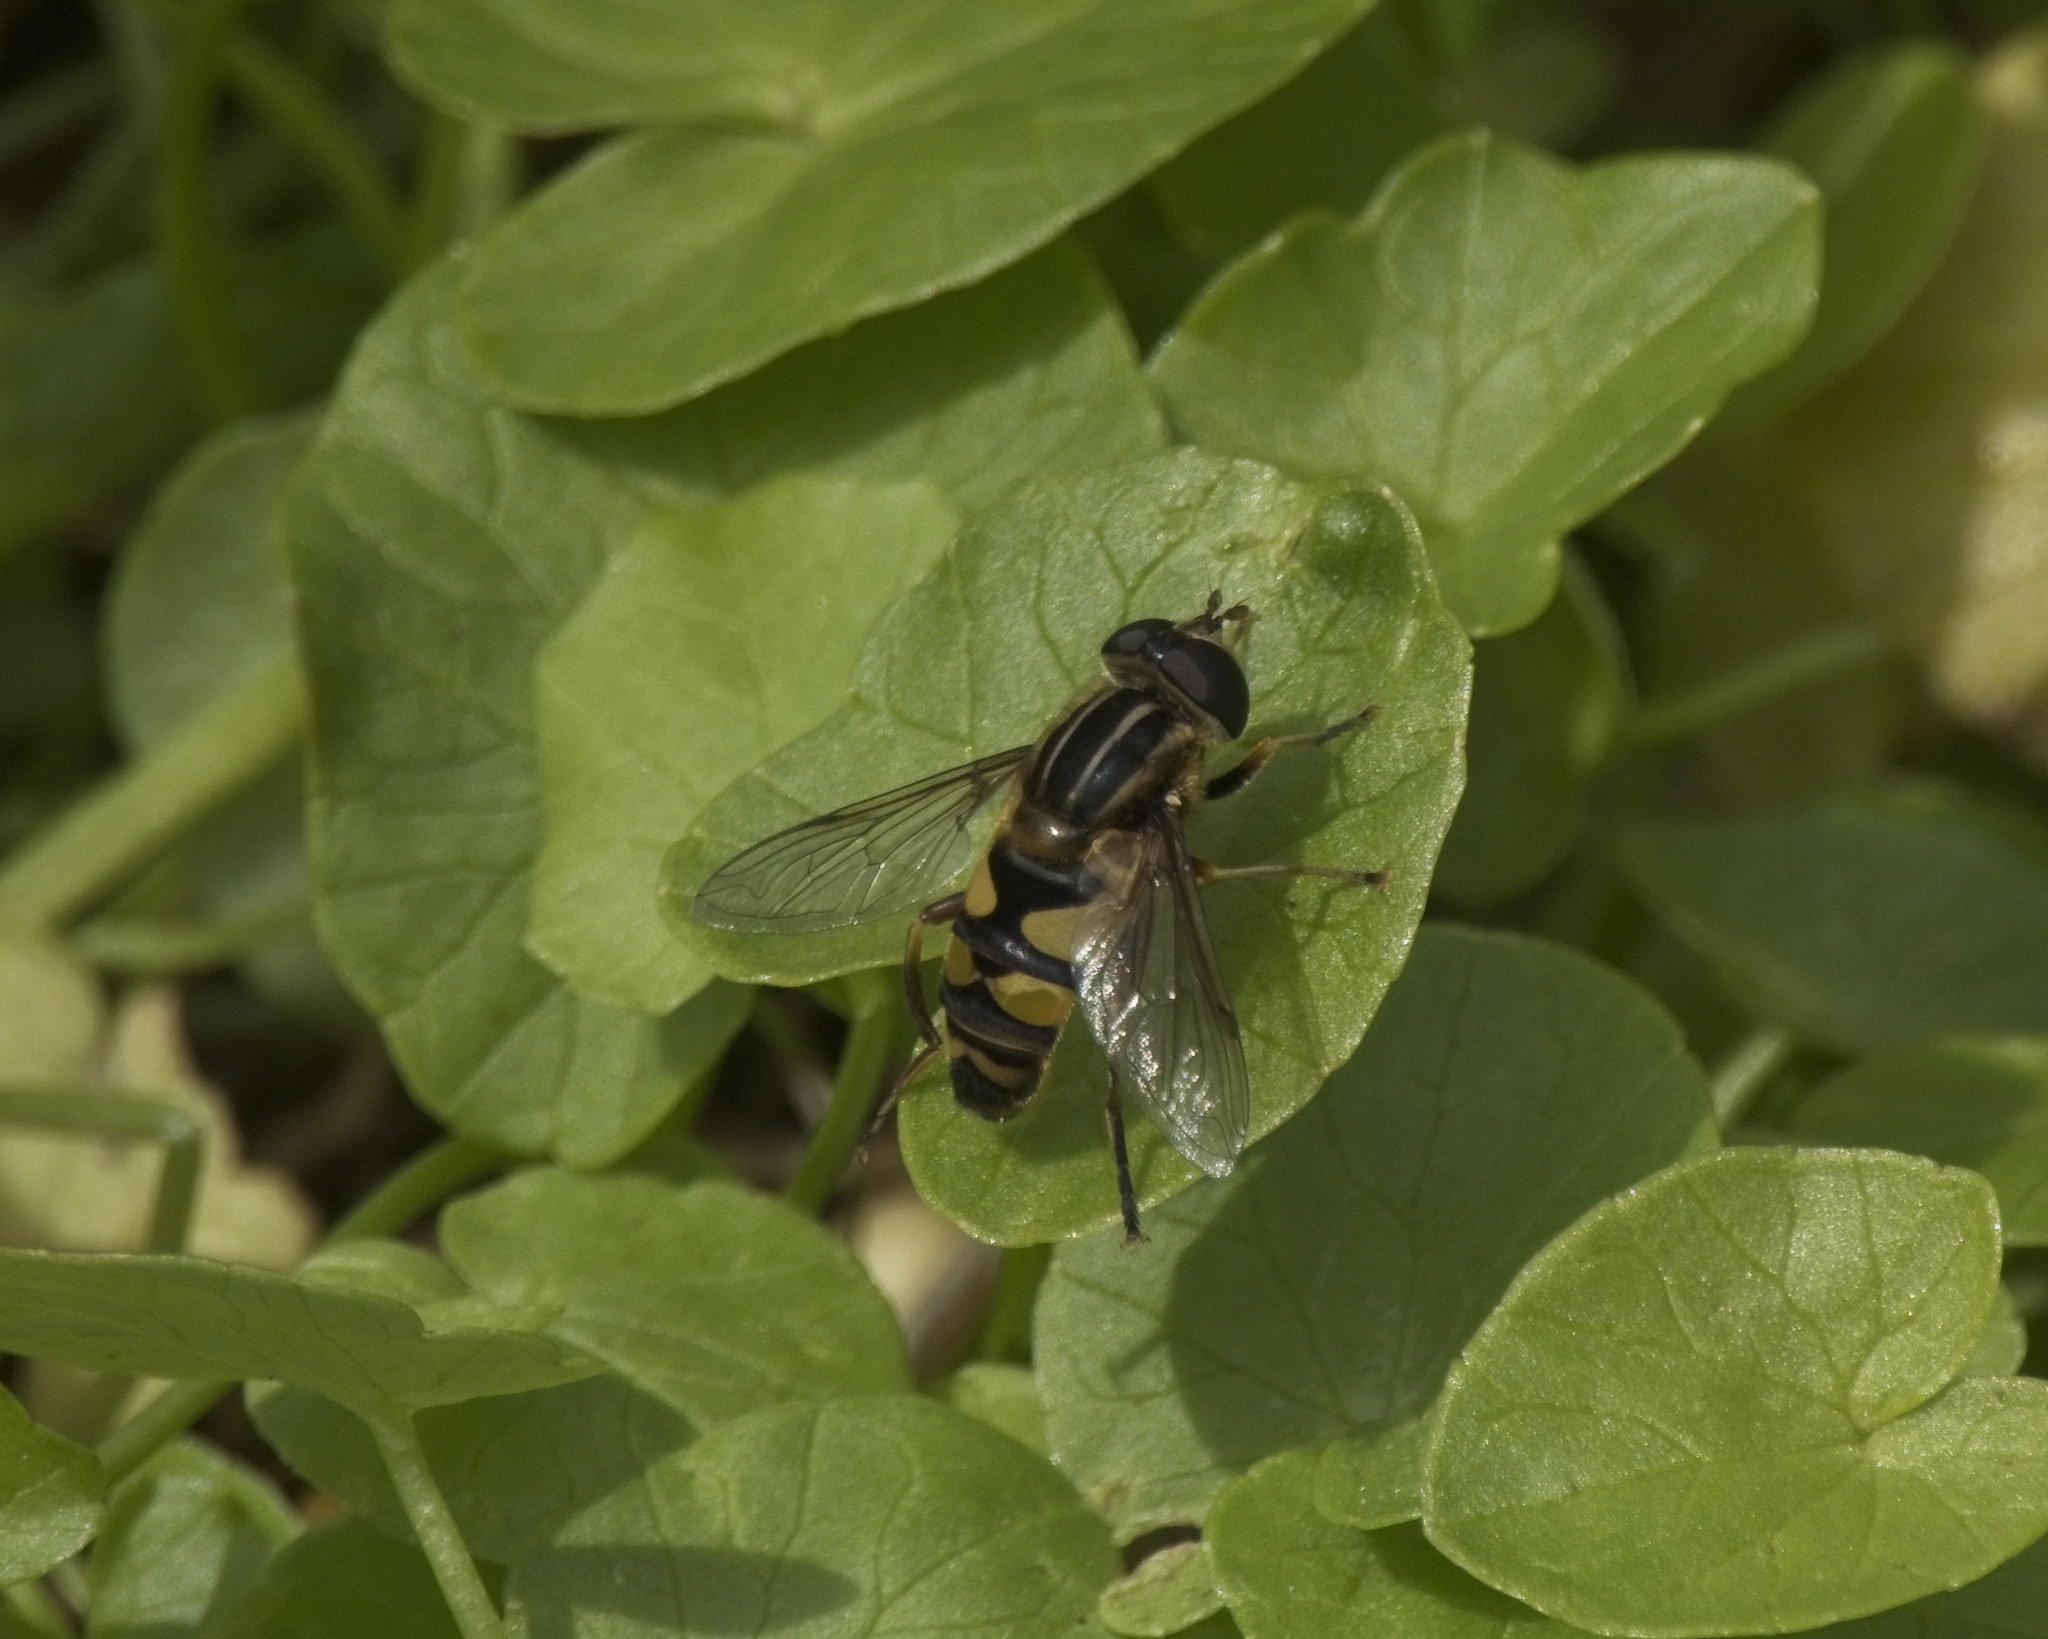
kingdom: Animalia
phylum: Arthropoda
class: Insecta
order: Diptera
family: Syrphidae
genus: Helophilus
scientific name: Helophilus fasciatus
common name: Narrow-headed marsh fly
